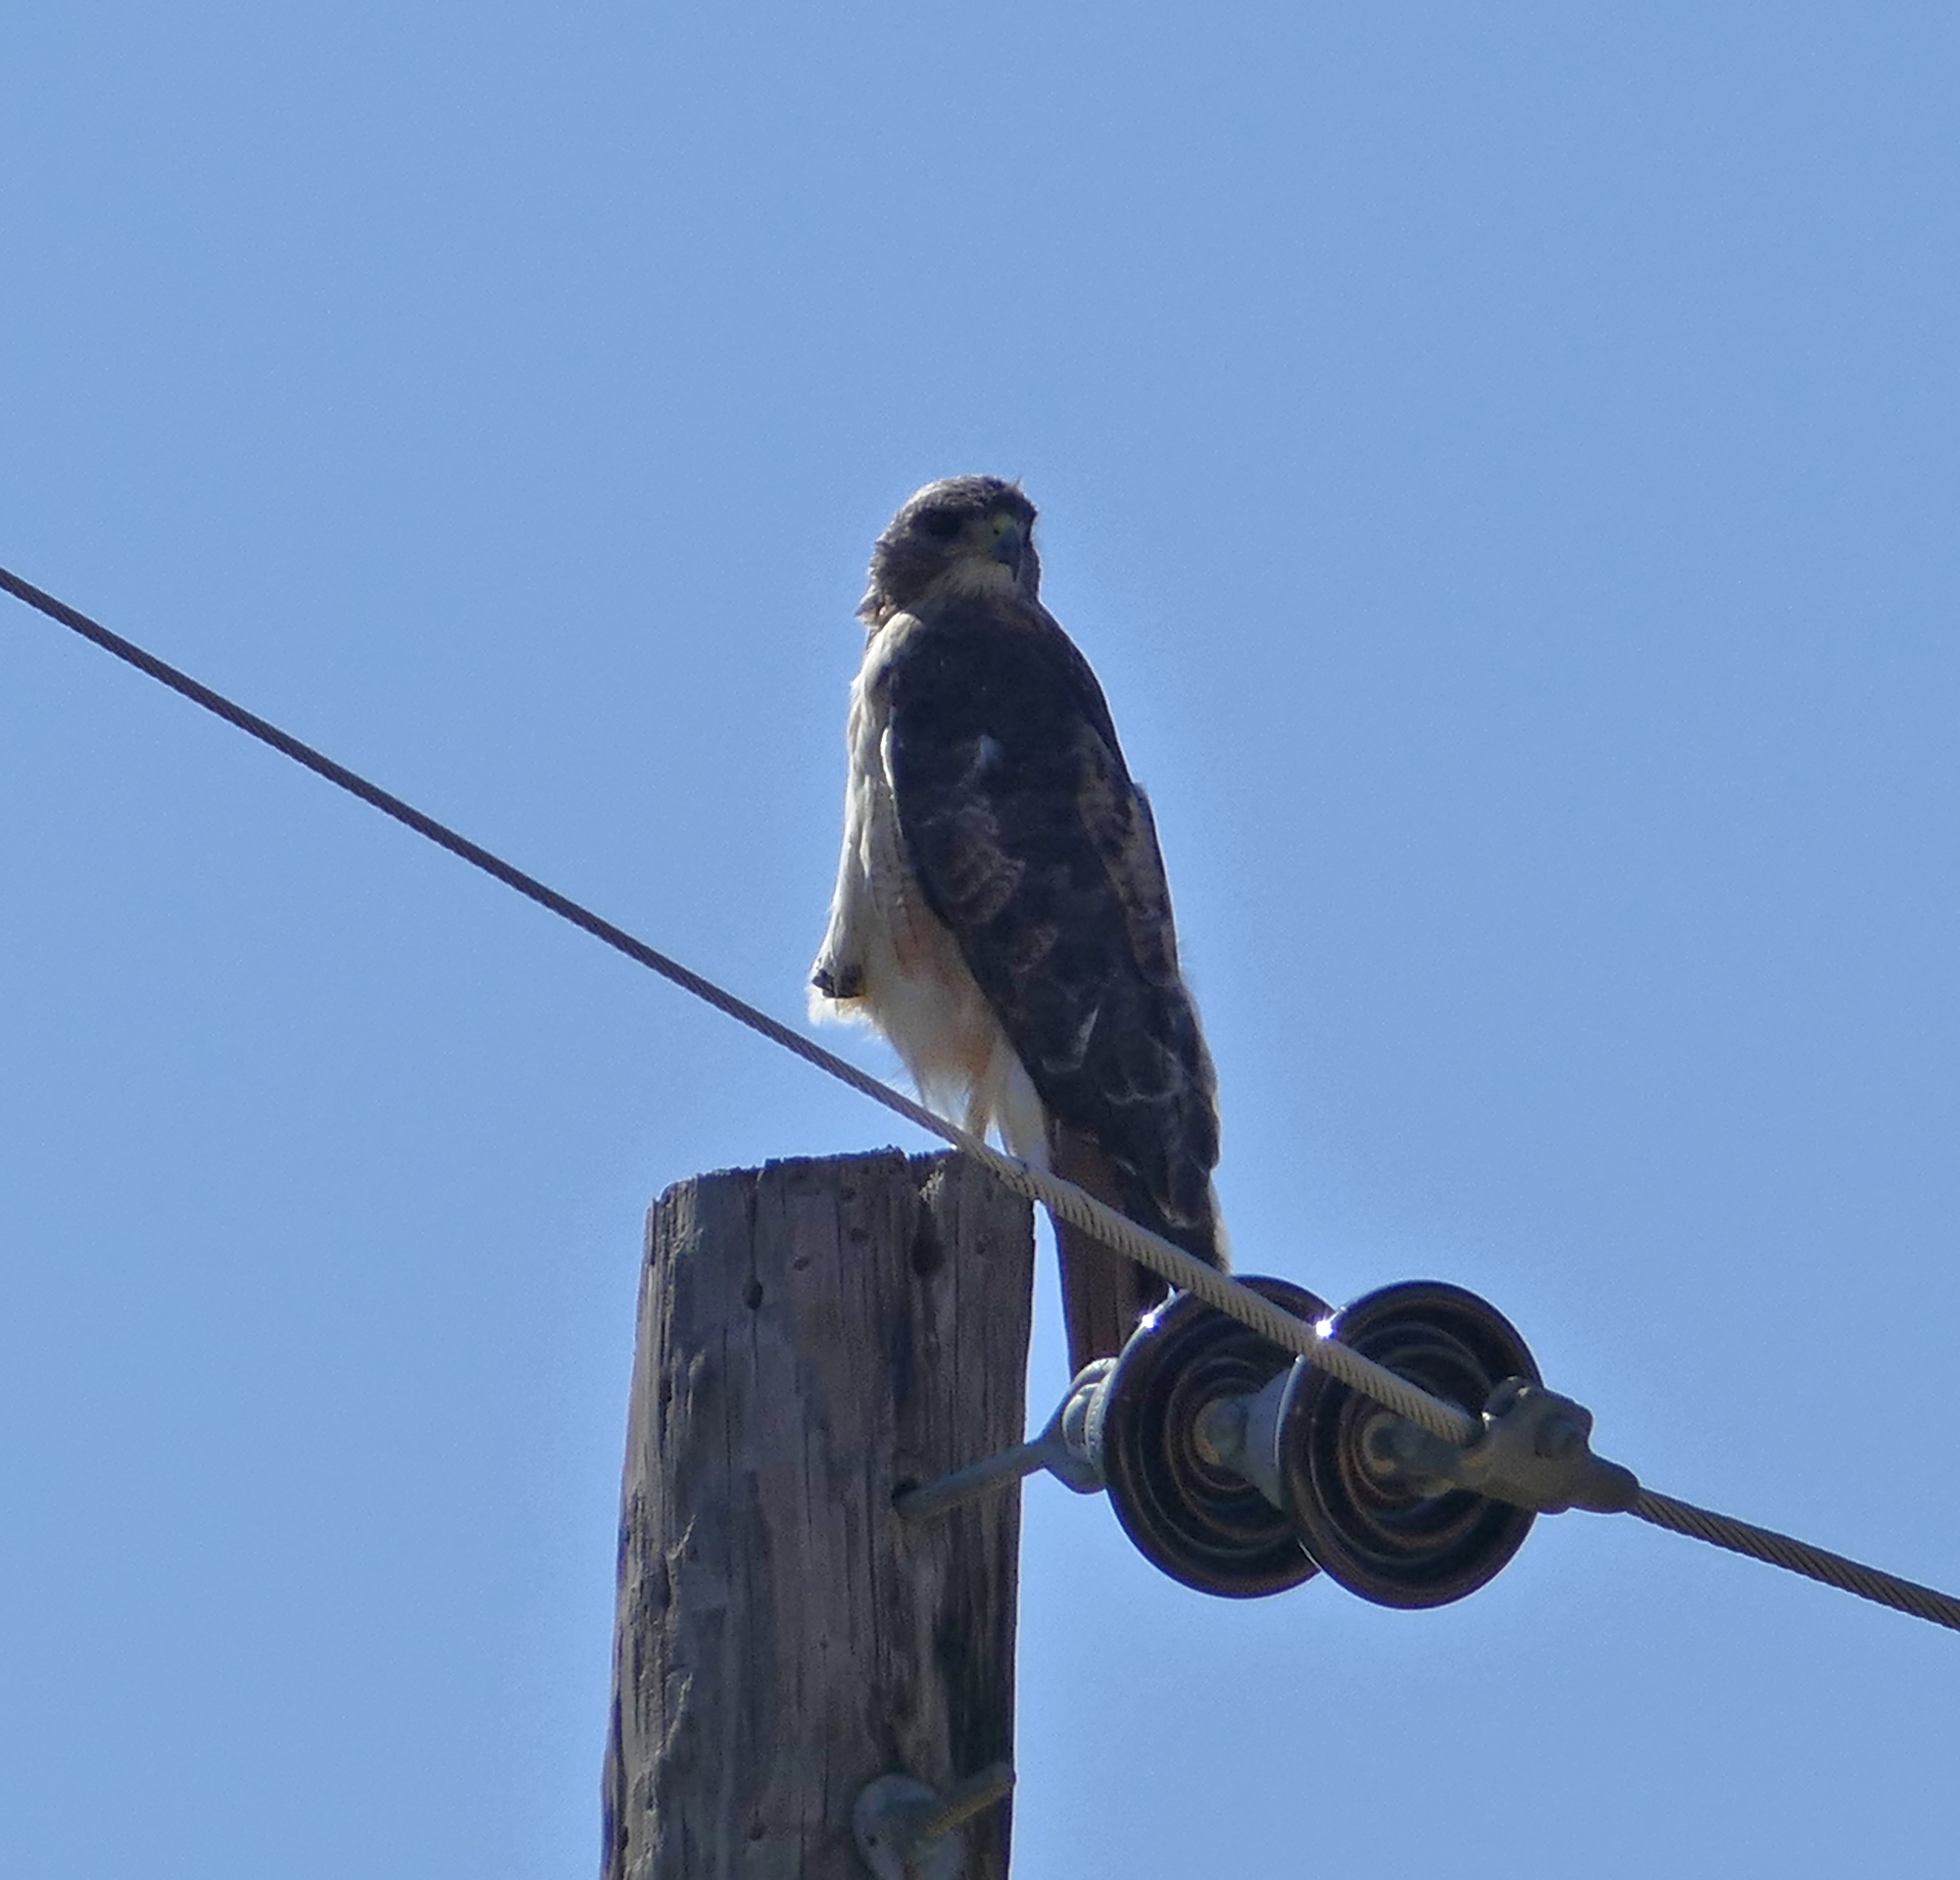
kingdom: Animalia
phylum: Chordata
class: Aves
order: Accipitriformes
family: Accipitridae
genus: Buteo
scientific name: Buteo jamaicensis
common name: Red-tailed hawk
